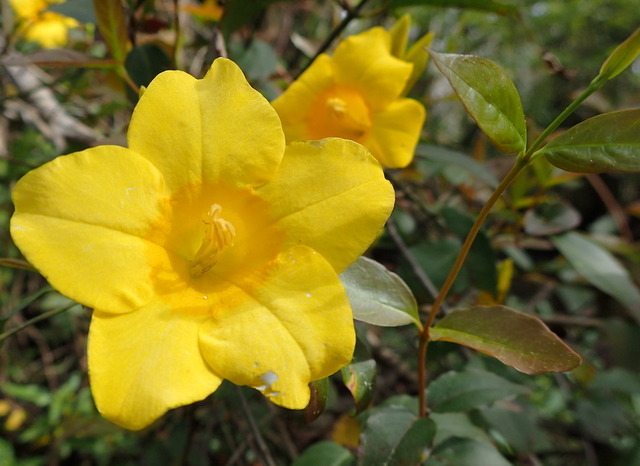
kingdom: Plantae
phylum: Tracheophyta
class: Magnoliopsida
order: Gentianales
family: Gelsemiaceae
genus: Gelsemium
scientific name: Gelsemium rankinii
